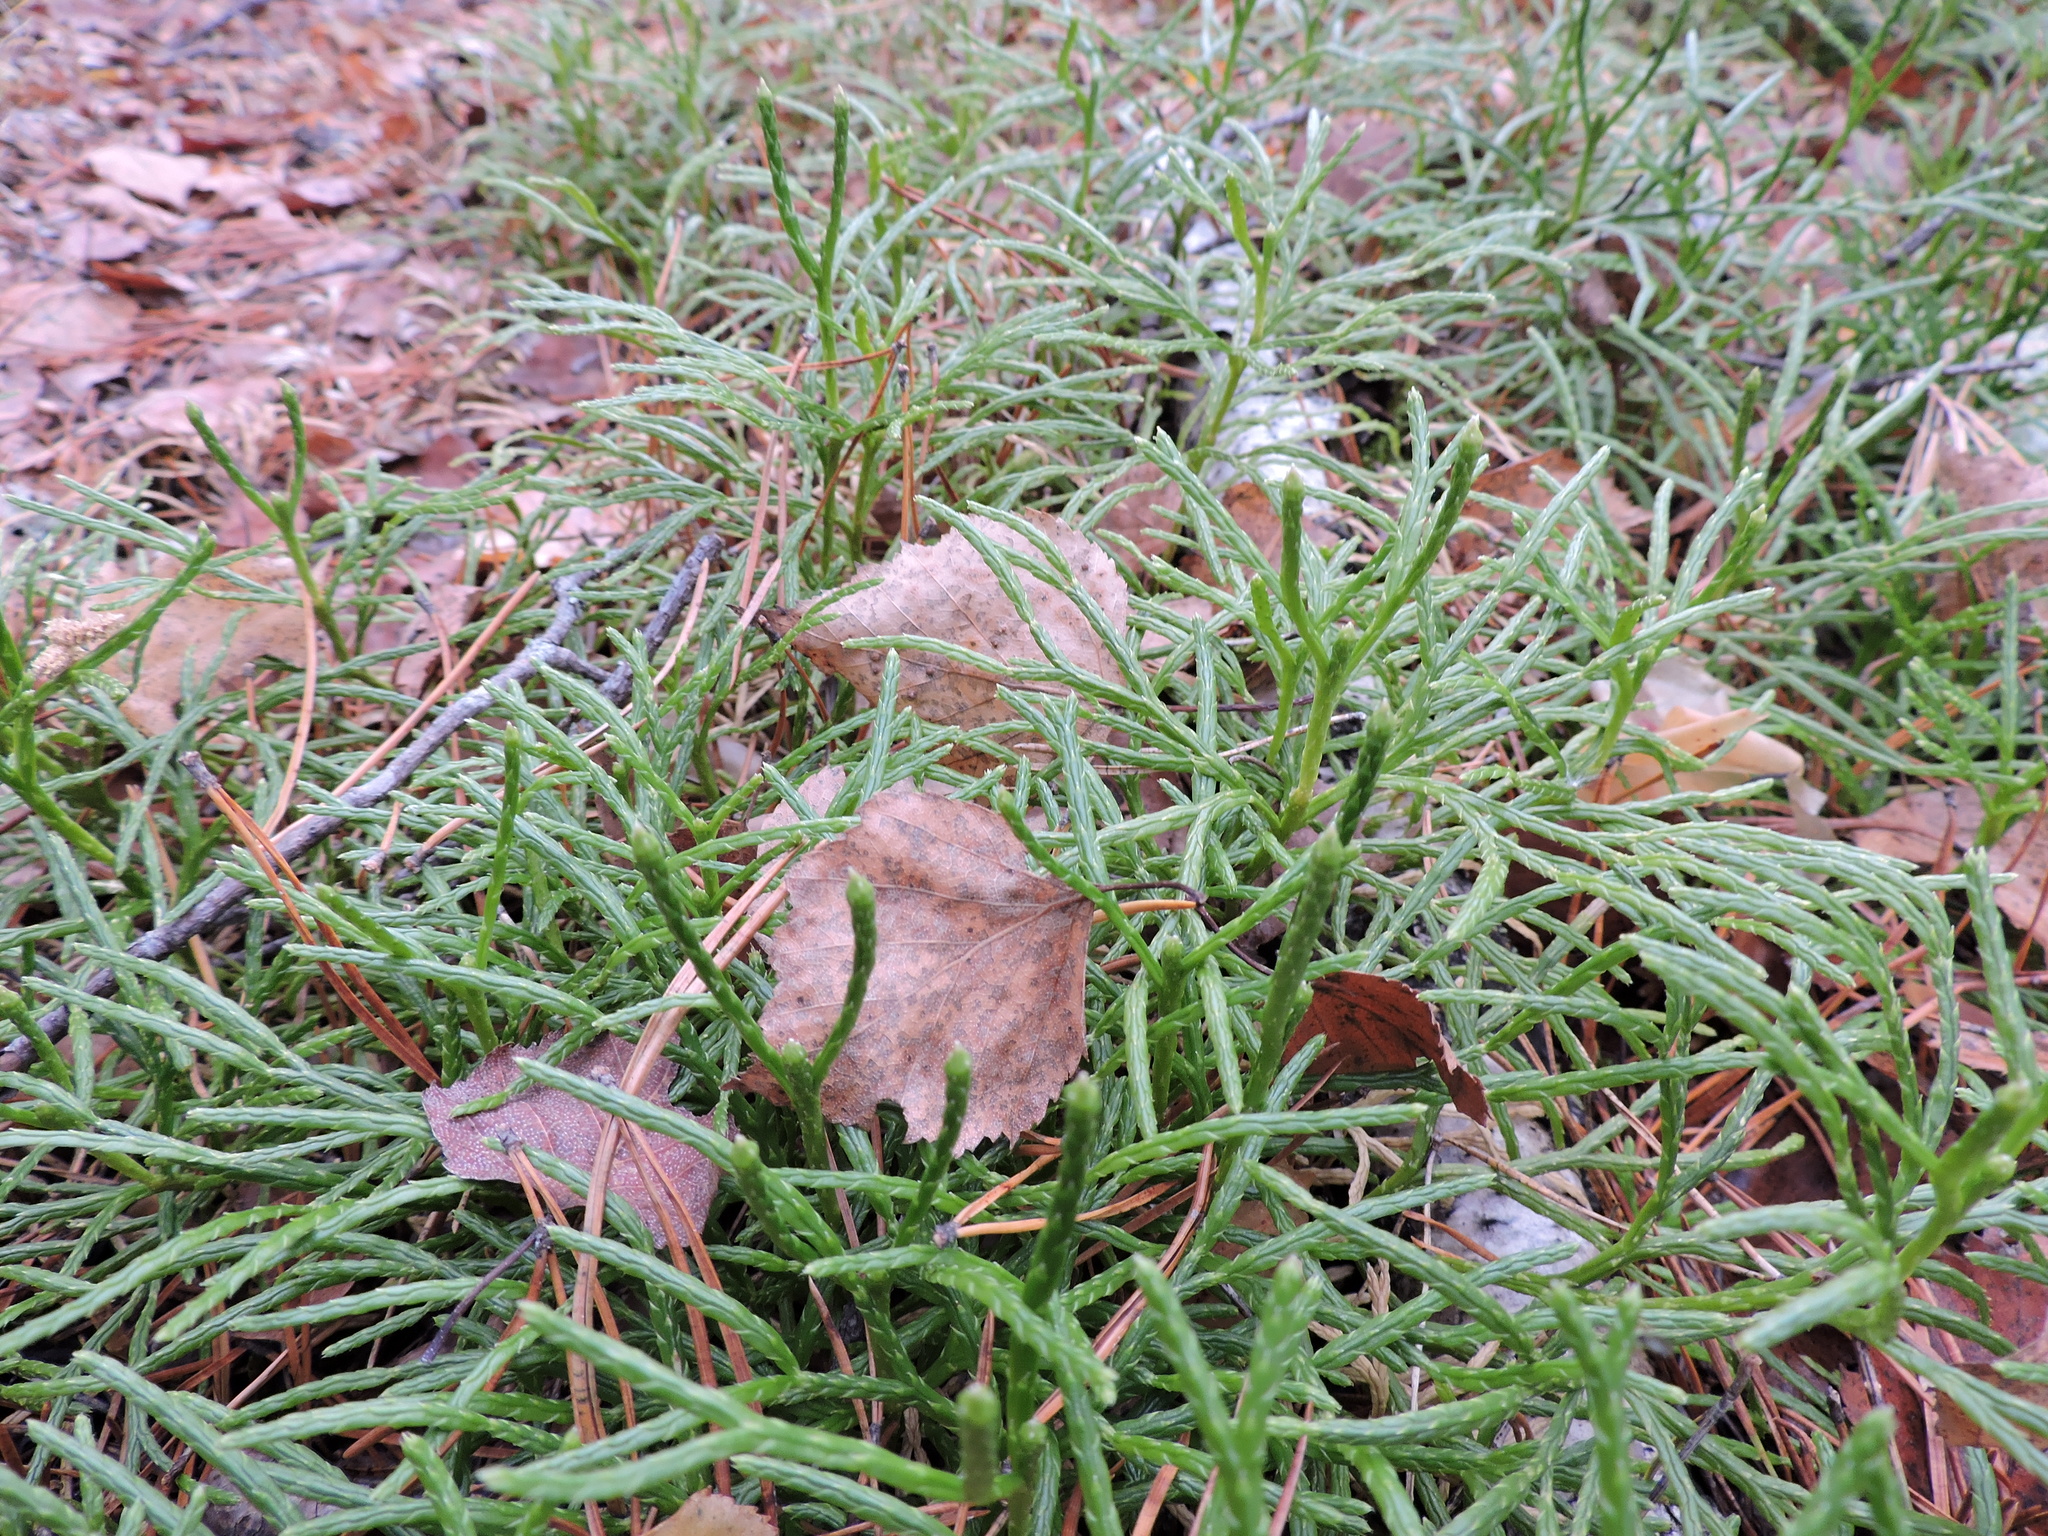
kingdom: Plantae
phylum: Tracheophyta
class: Lycopodiopsida
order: Lycopodiales
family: Lycopodiaceae
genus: Diphasiastrum
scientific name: Diphasiastrum complanatum
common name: Northern running-pine
